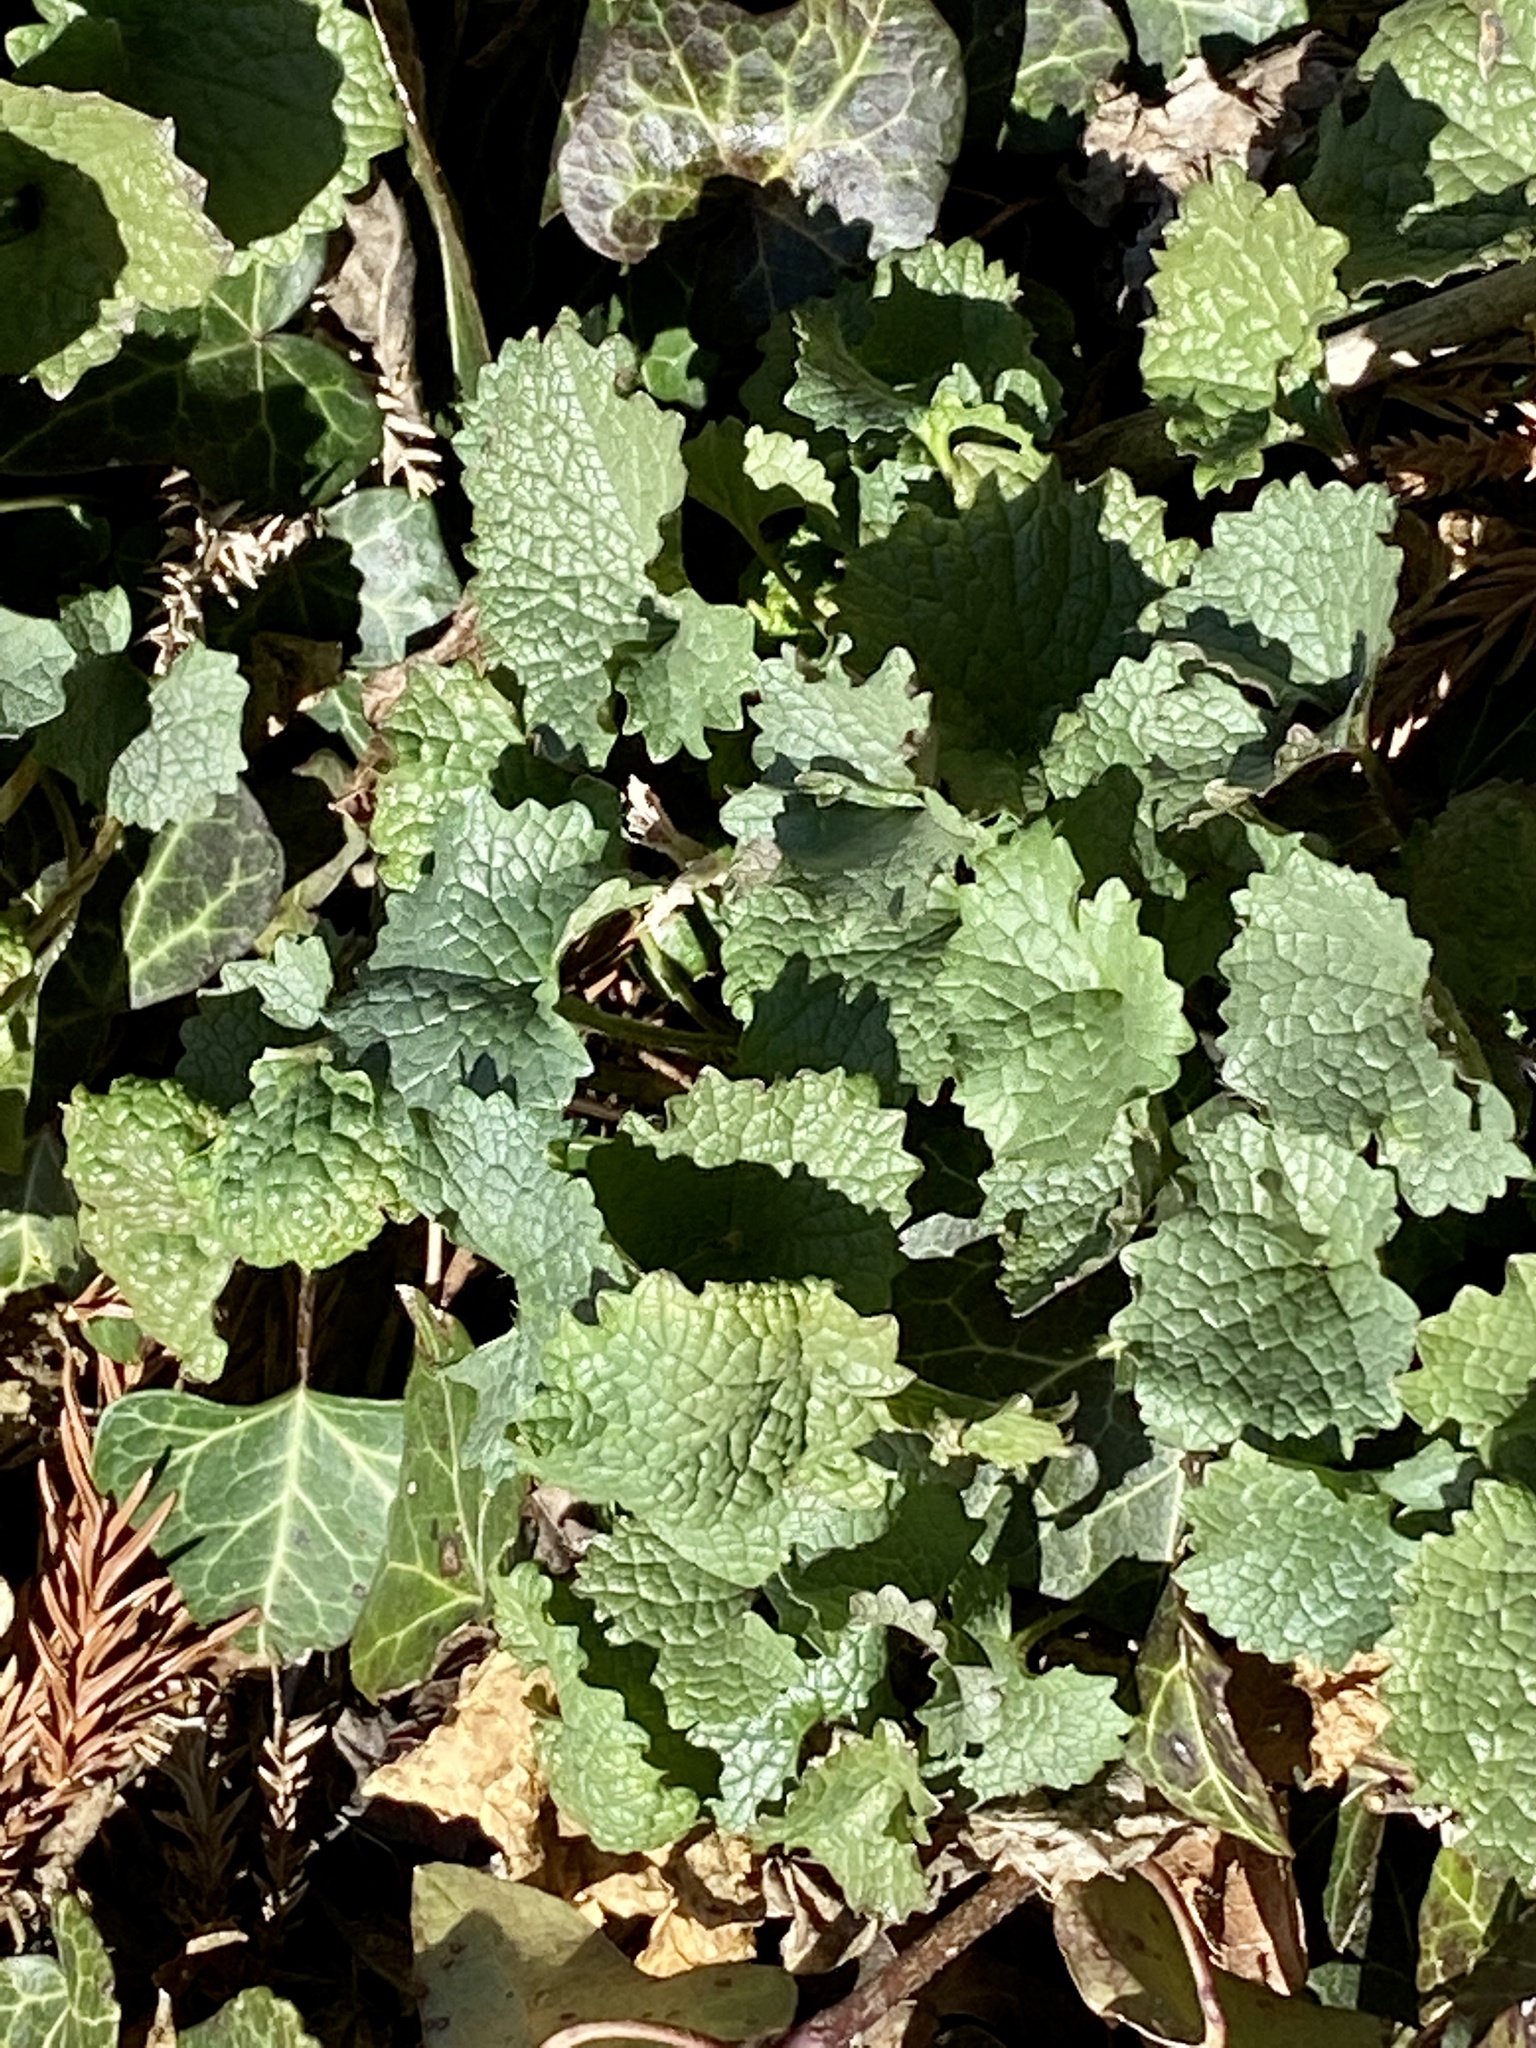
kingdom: Plantae
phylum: Tracheophyta
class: Magnoliopsida
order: Brassicales
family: Brassicaceae
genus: Alliaria
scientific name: Alliaria petiolata
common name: Garlic mustard
